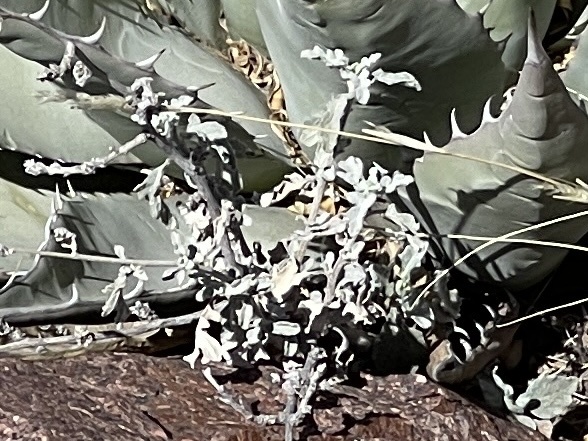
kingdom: Plantae
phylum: Tracheophyta
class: Magnoliopsida
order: Asterales
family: Asteraceae
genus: Parthenium
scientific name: Parthenium incanum
